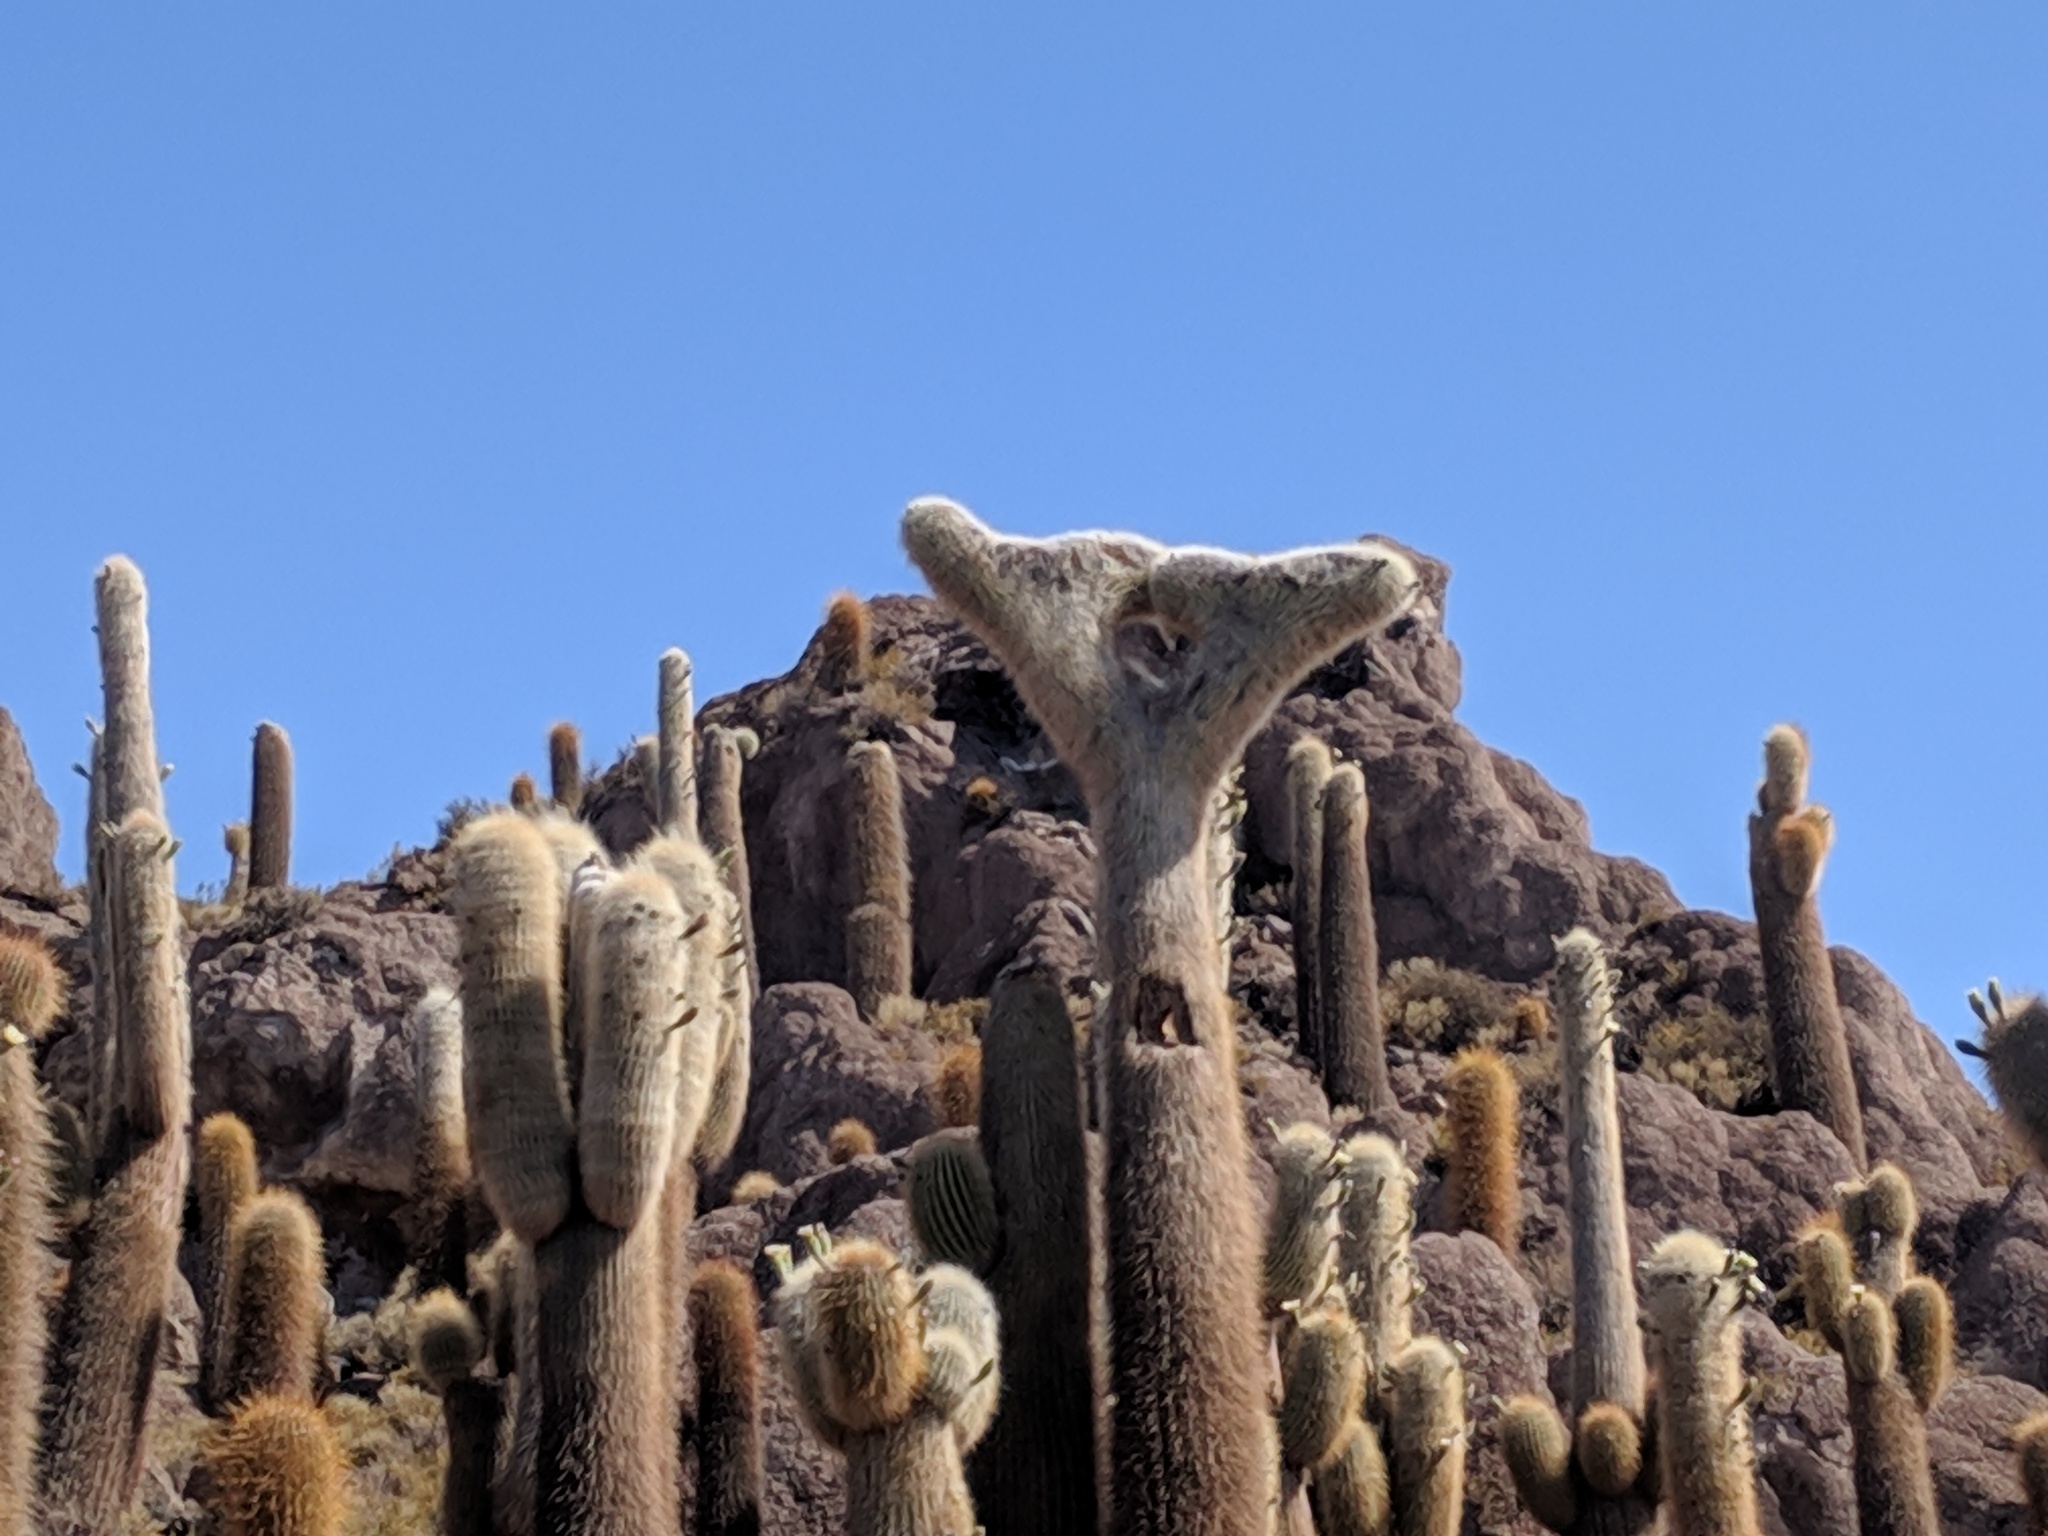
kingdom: Plantae
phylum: Tracheophyta
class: Magnoliopsida
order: Caryophyllales
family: Cactaceae
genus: Leucostele
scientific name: Leucostele atacamensis
